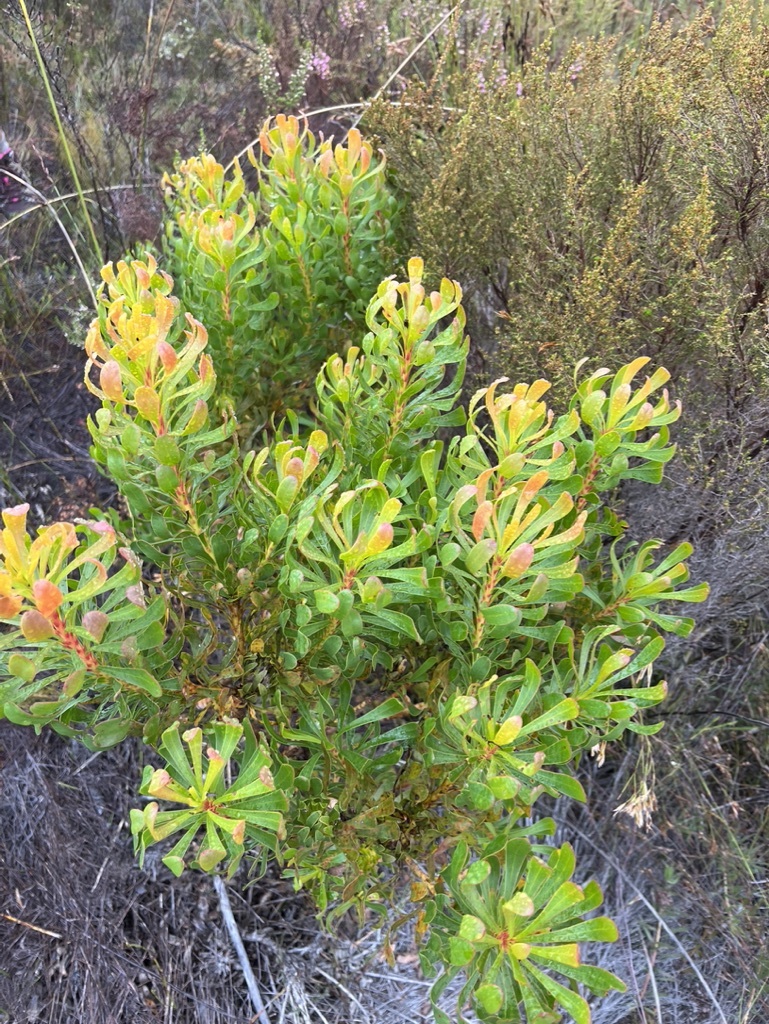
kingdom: Plantae
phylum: Tracheophyta
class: Magnoliopsida
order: Proteales
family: Proteaceae
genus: Aulax
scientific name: Aulax umbellata
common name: Broad-leaf featherbush
